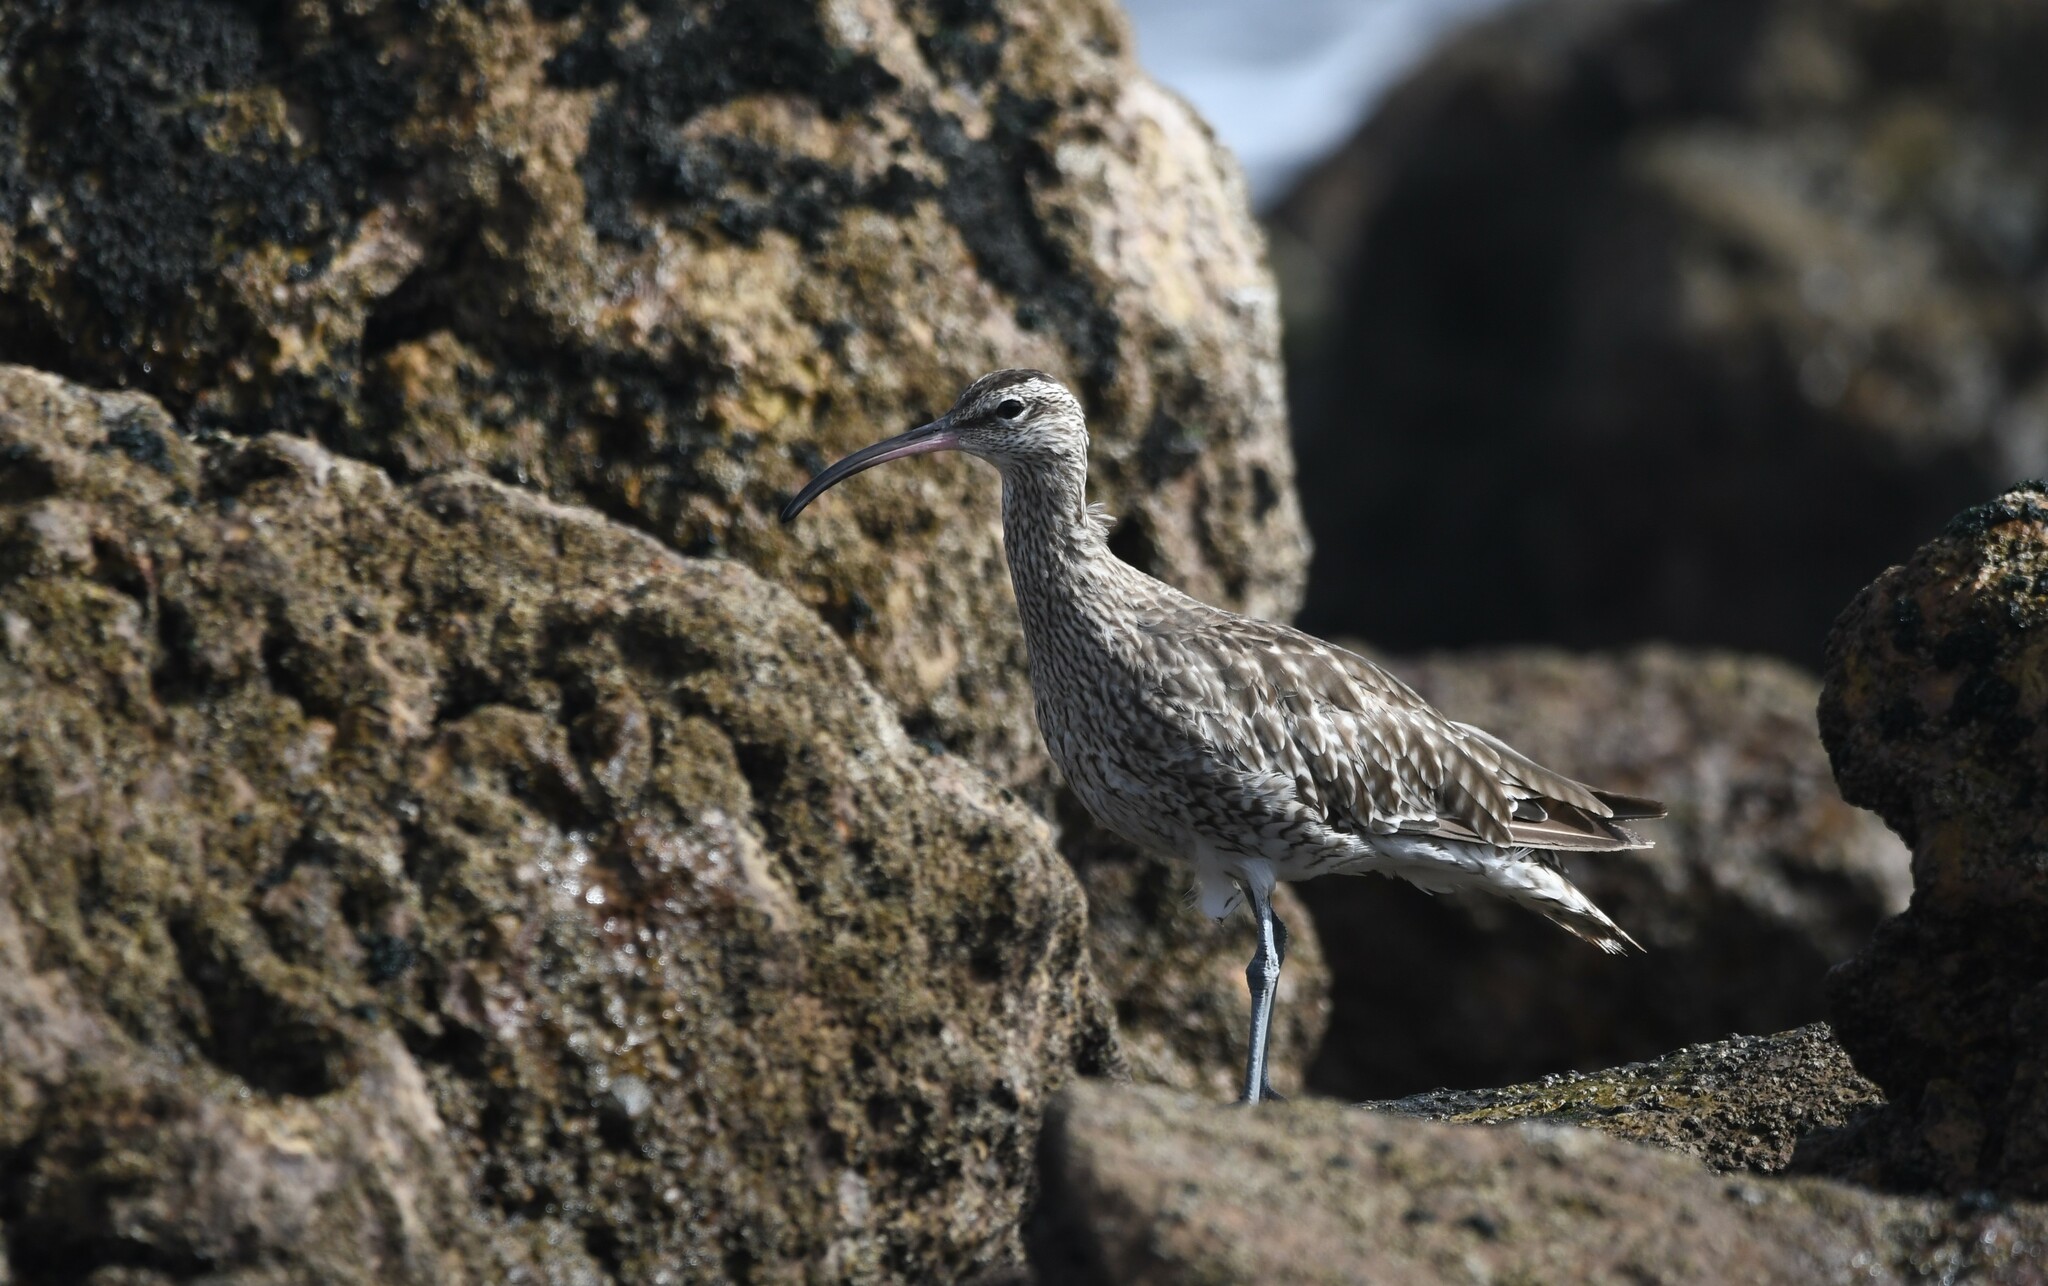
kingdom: Animalia
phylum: Chordata
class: Aves
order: Charadriiformes
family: Scolopacidae
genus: Numenius
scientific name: Numenius phaeopus
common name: Whimbrel
